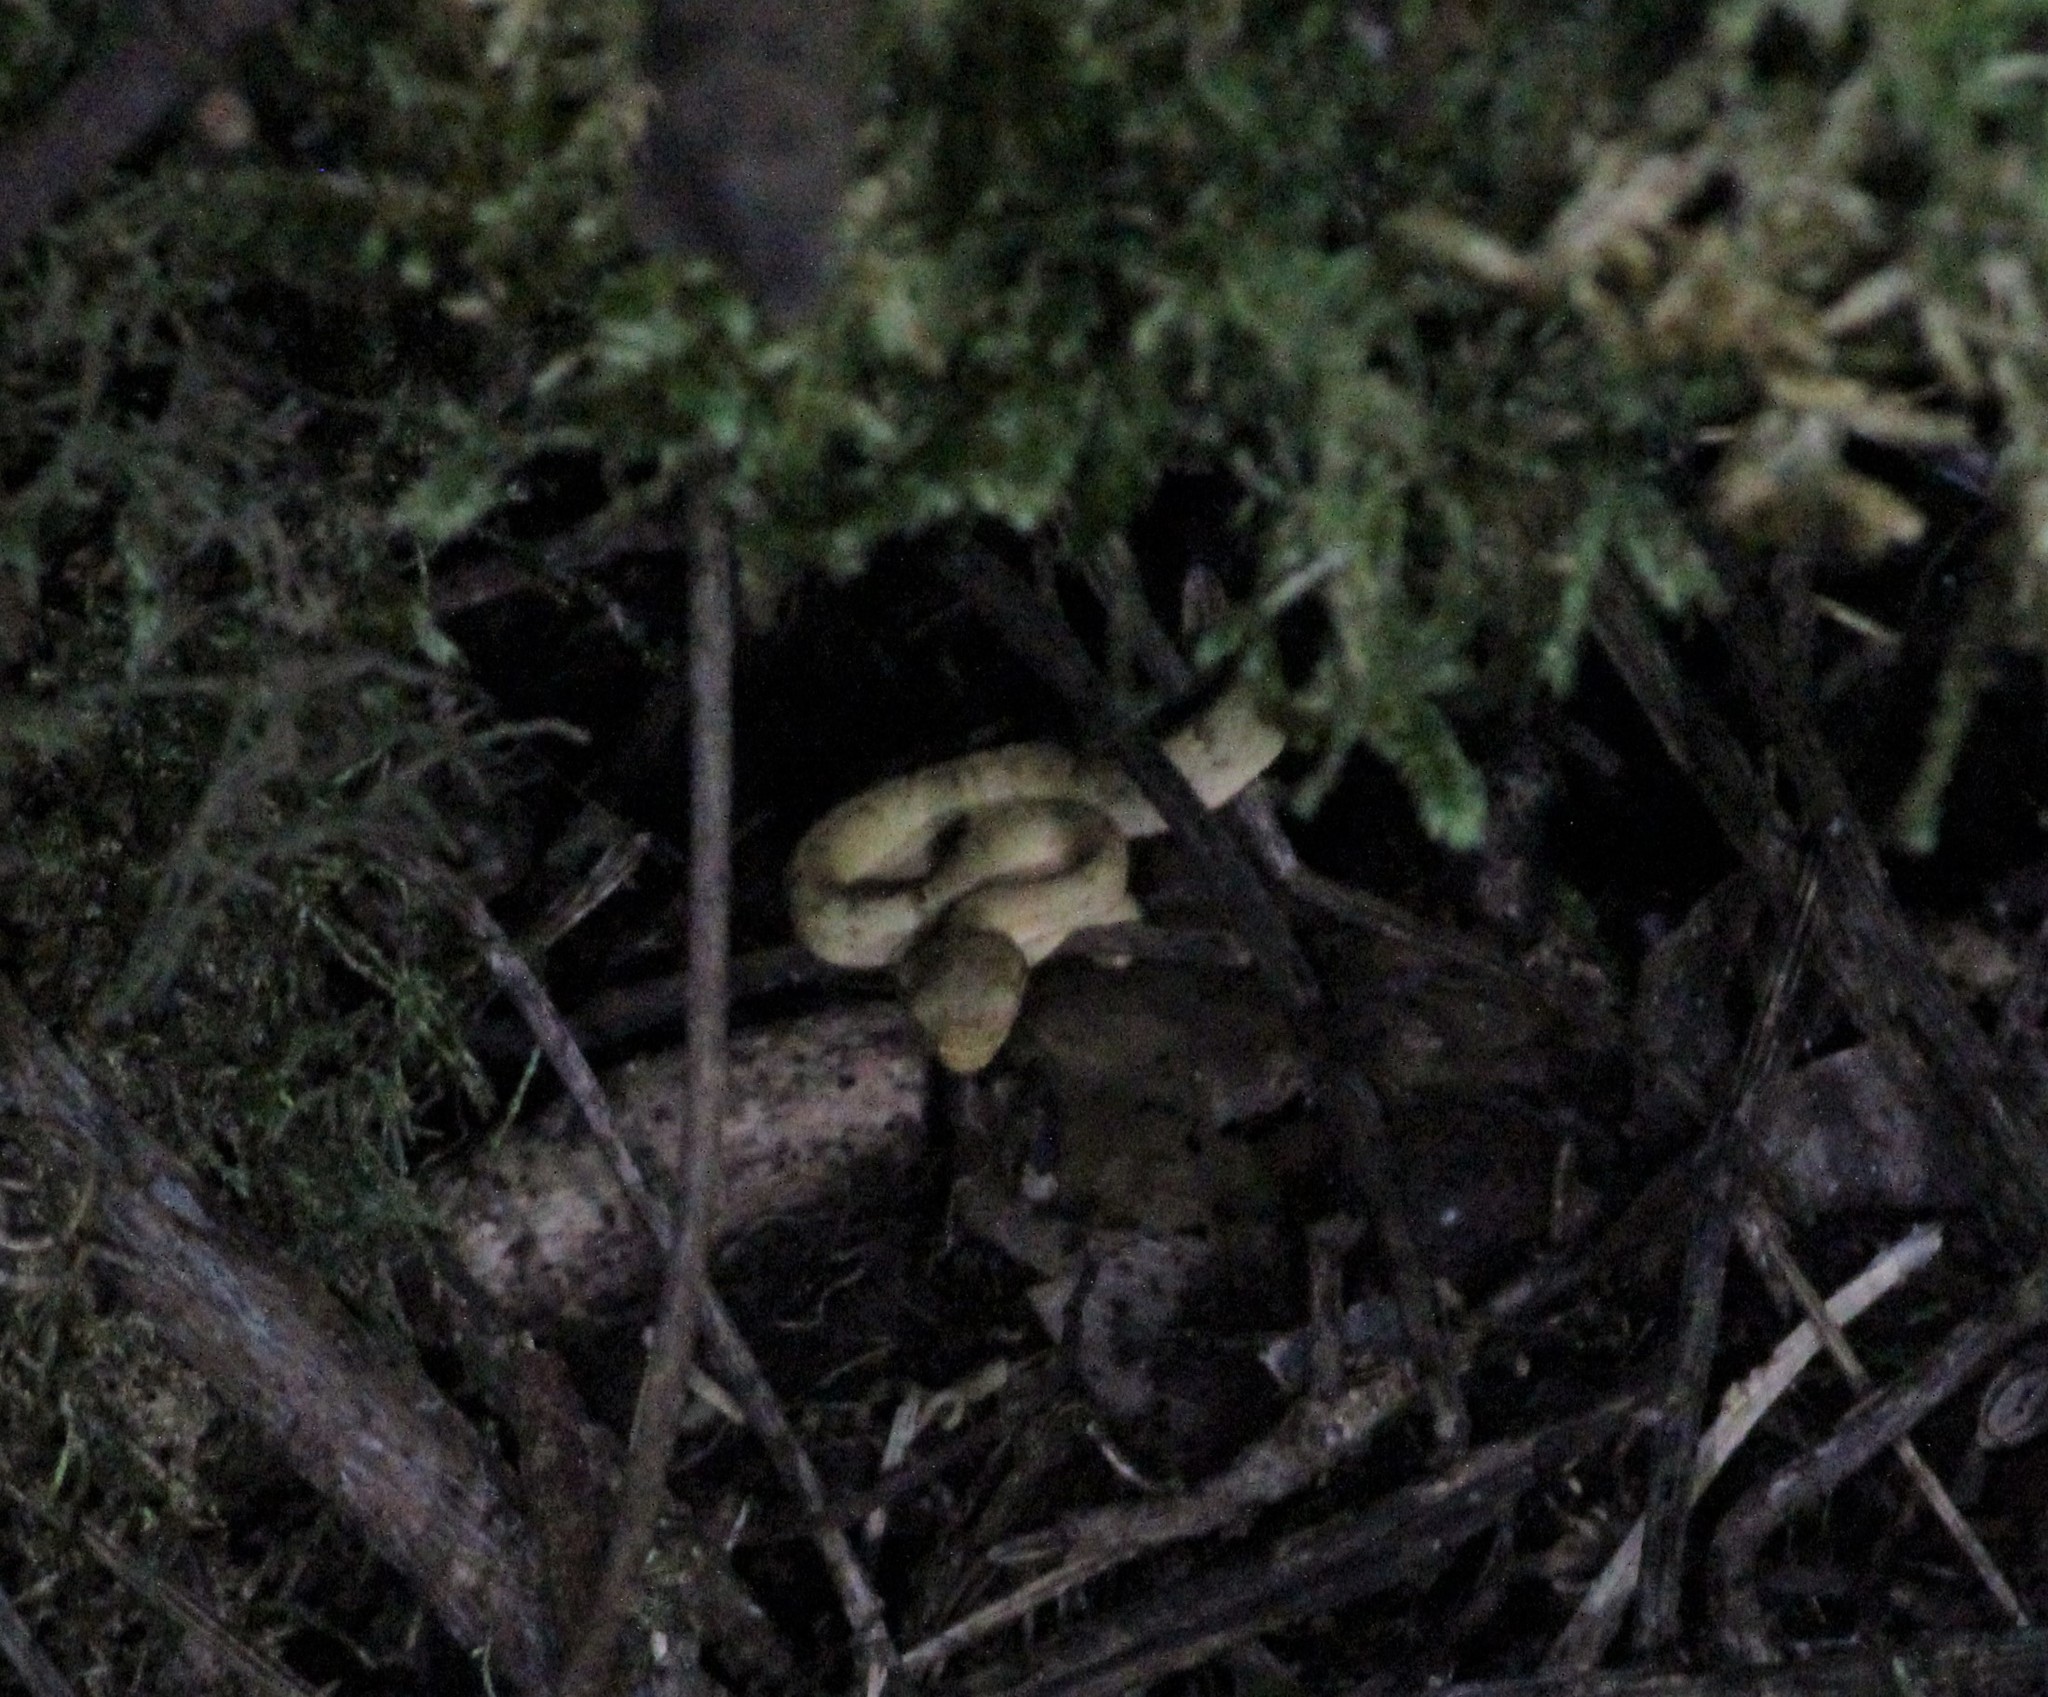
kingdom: Animalia
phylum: Chordata
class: Squamata
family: Viperidae
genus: Bothriechis
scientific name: Bothriechis lateralis
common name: Coffee palm viper
